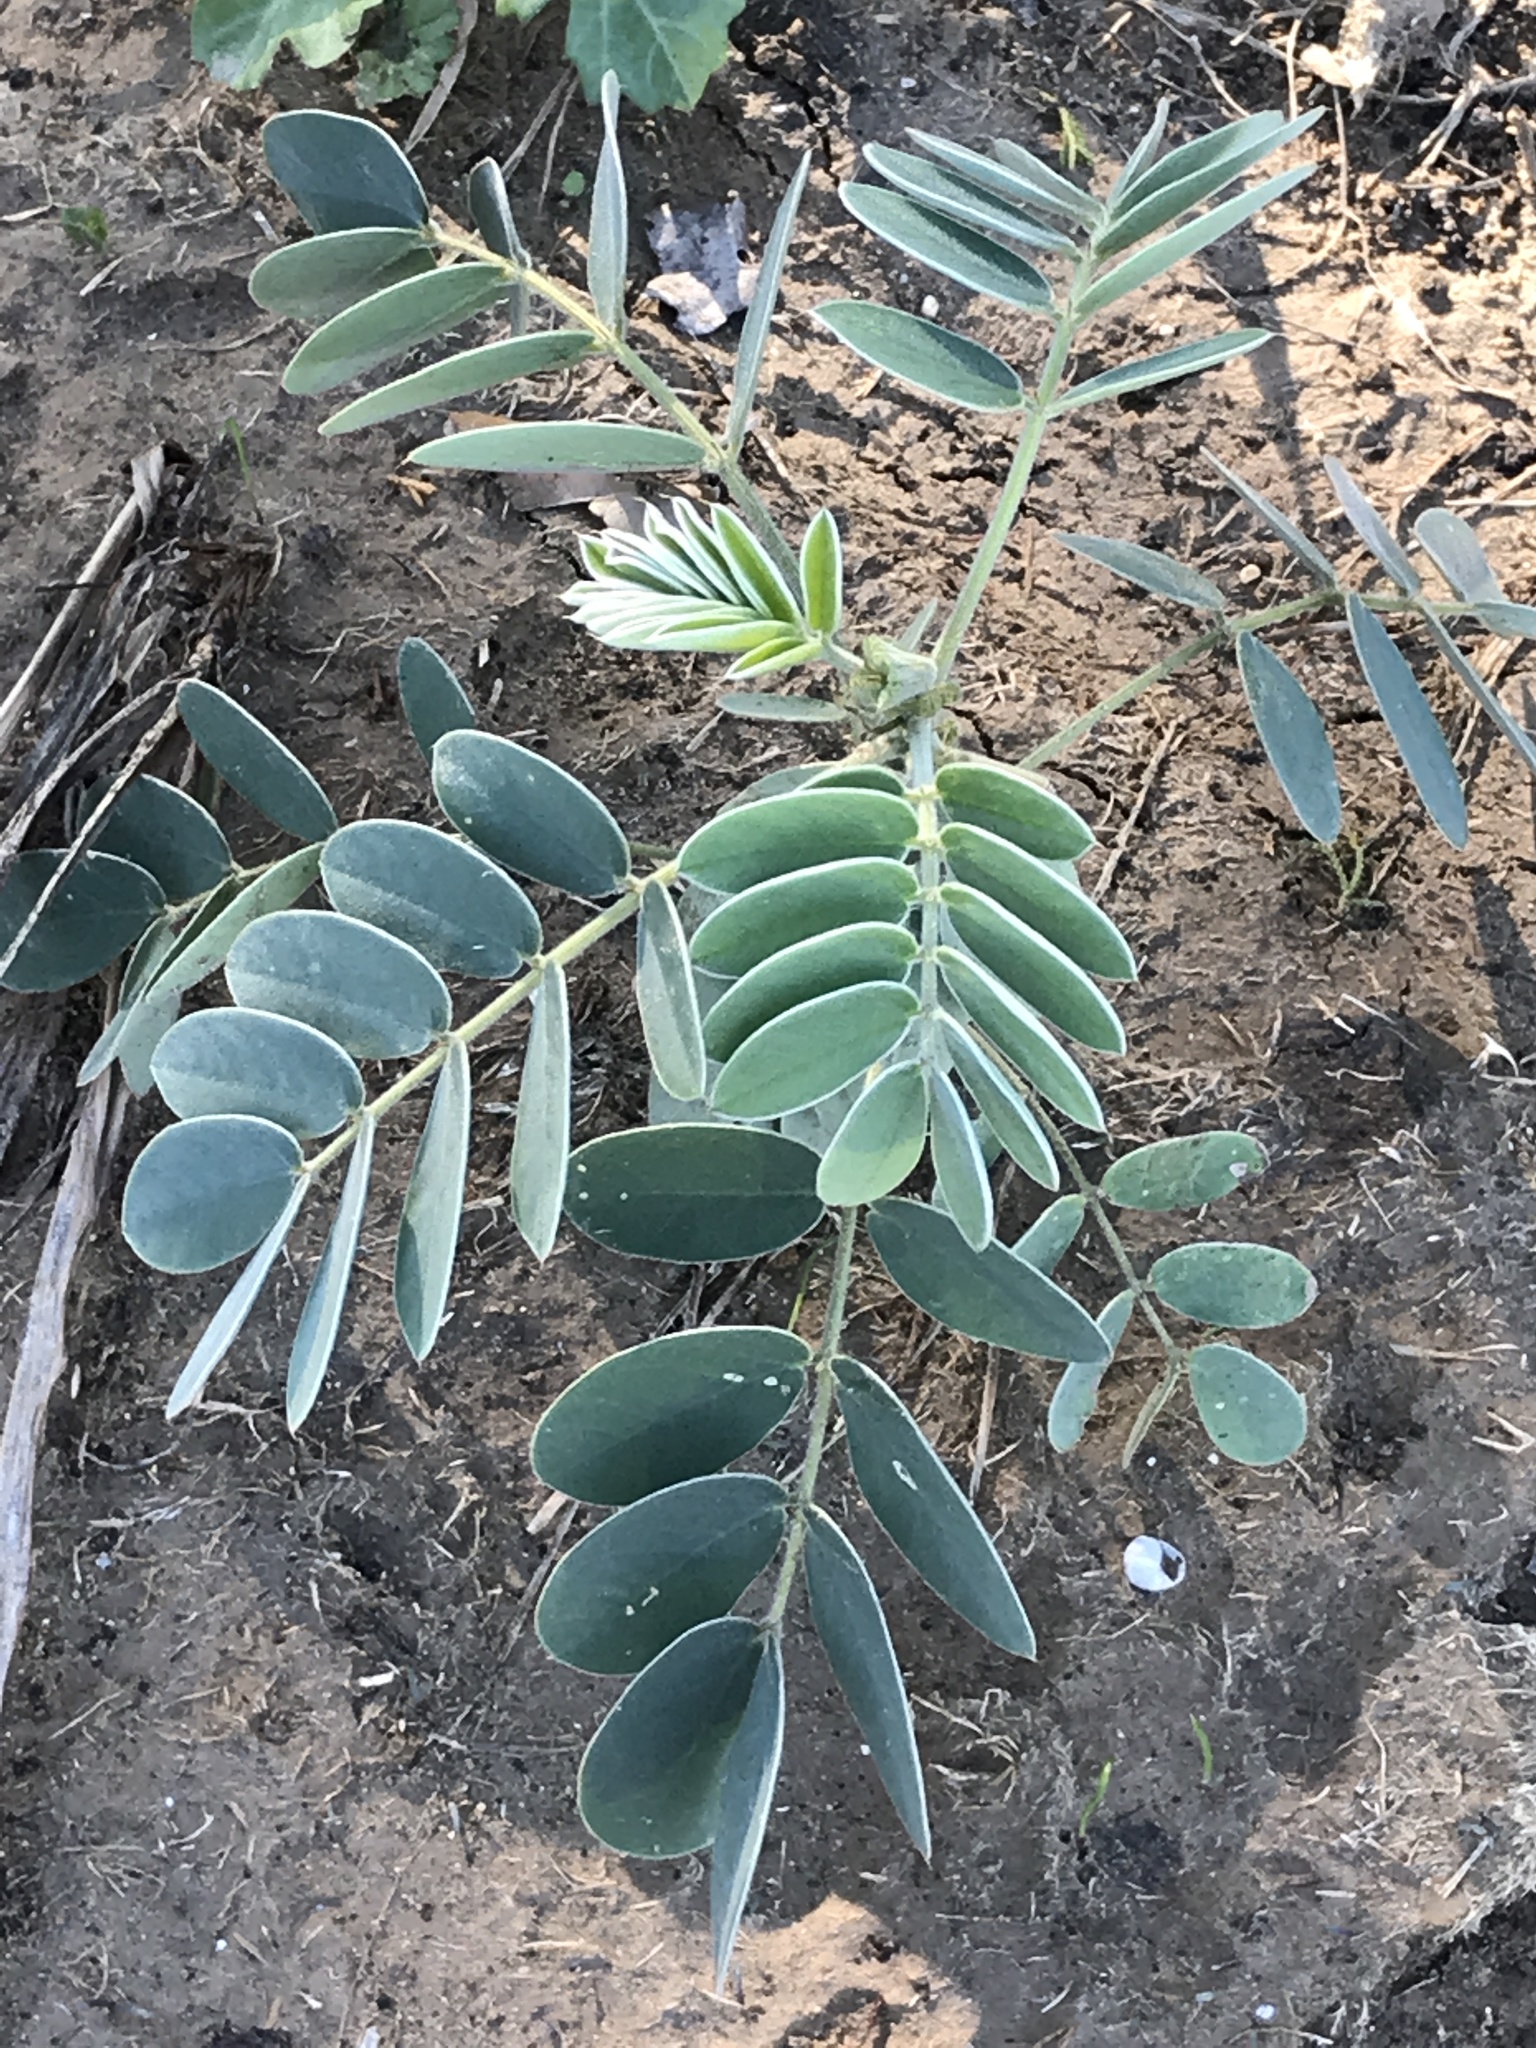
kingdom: Plantae
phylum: Tracheophyta
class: Magnoliopsida
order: Fabales
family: Fabaceae
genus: Senna
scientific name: Senna lindheimeriana
